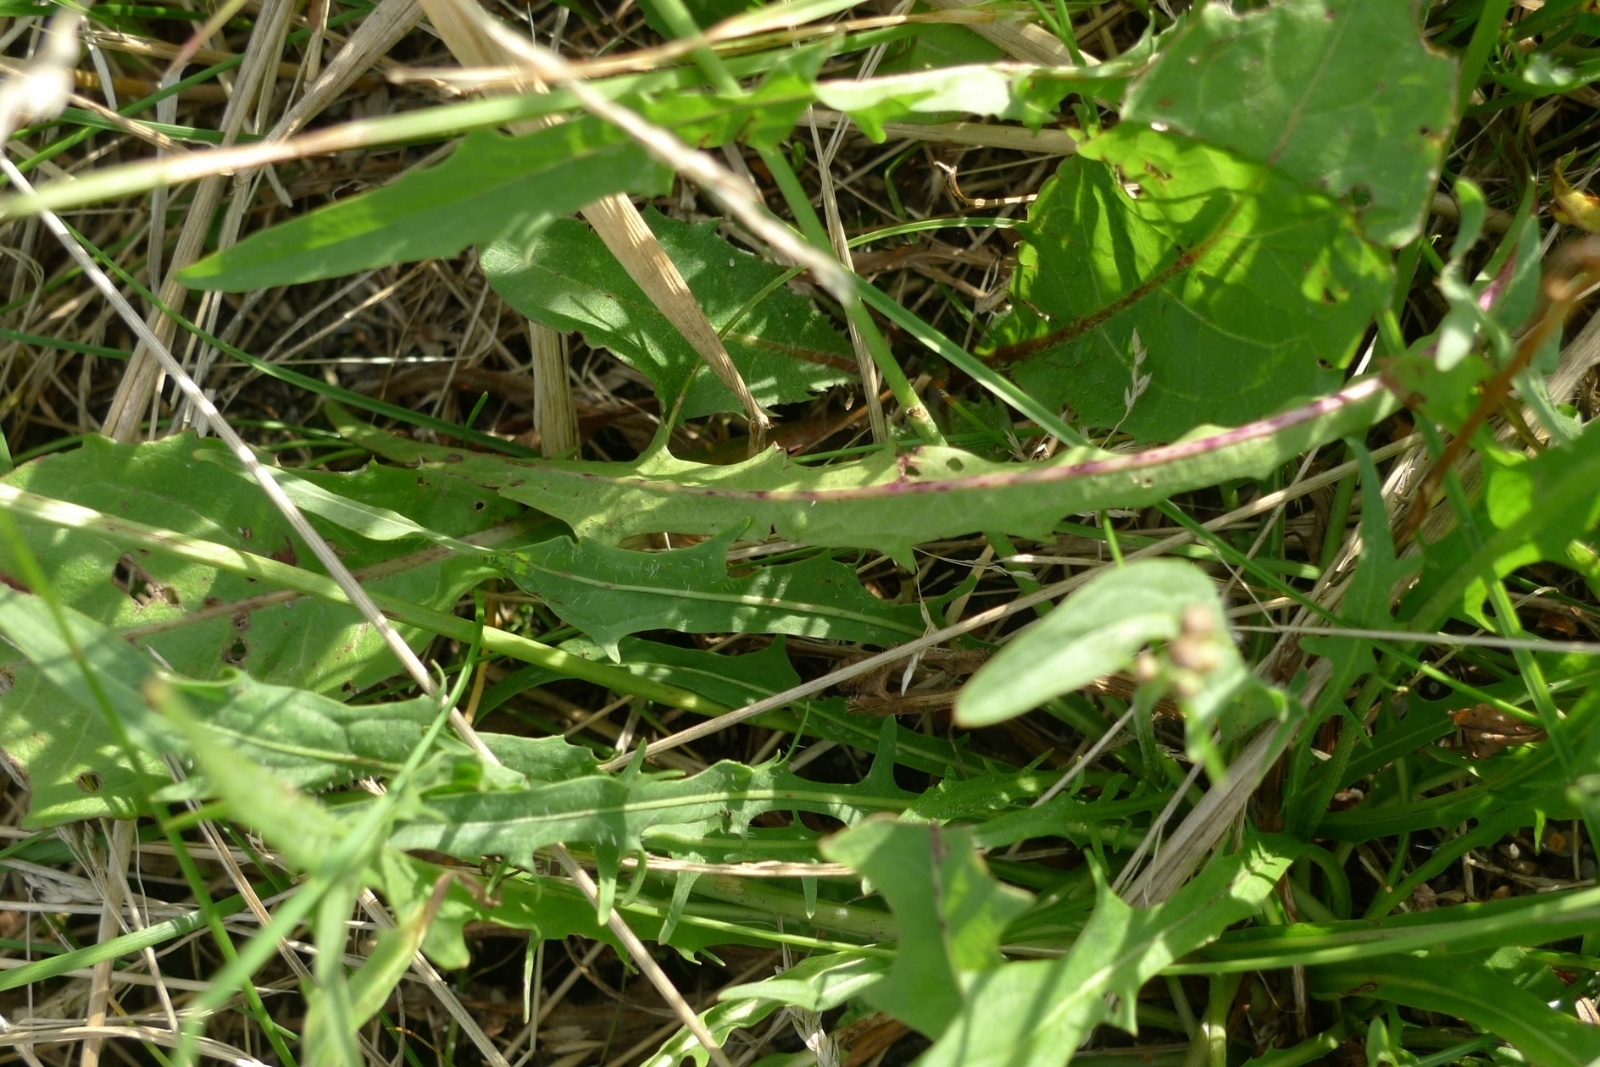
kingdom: Plantae
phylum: Tracheophyta
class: Magnoliopsida
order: Asterales
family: Asteraceae
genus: Scorzoneroides
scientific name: Scorzoneroides autumnalis
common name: Autumn hawkbit
